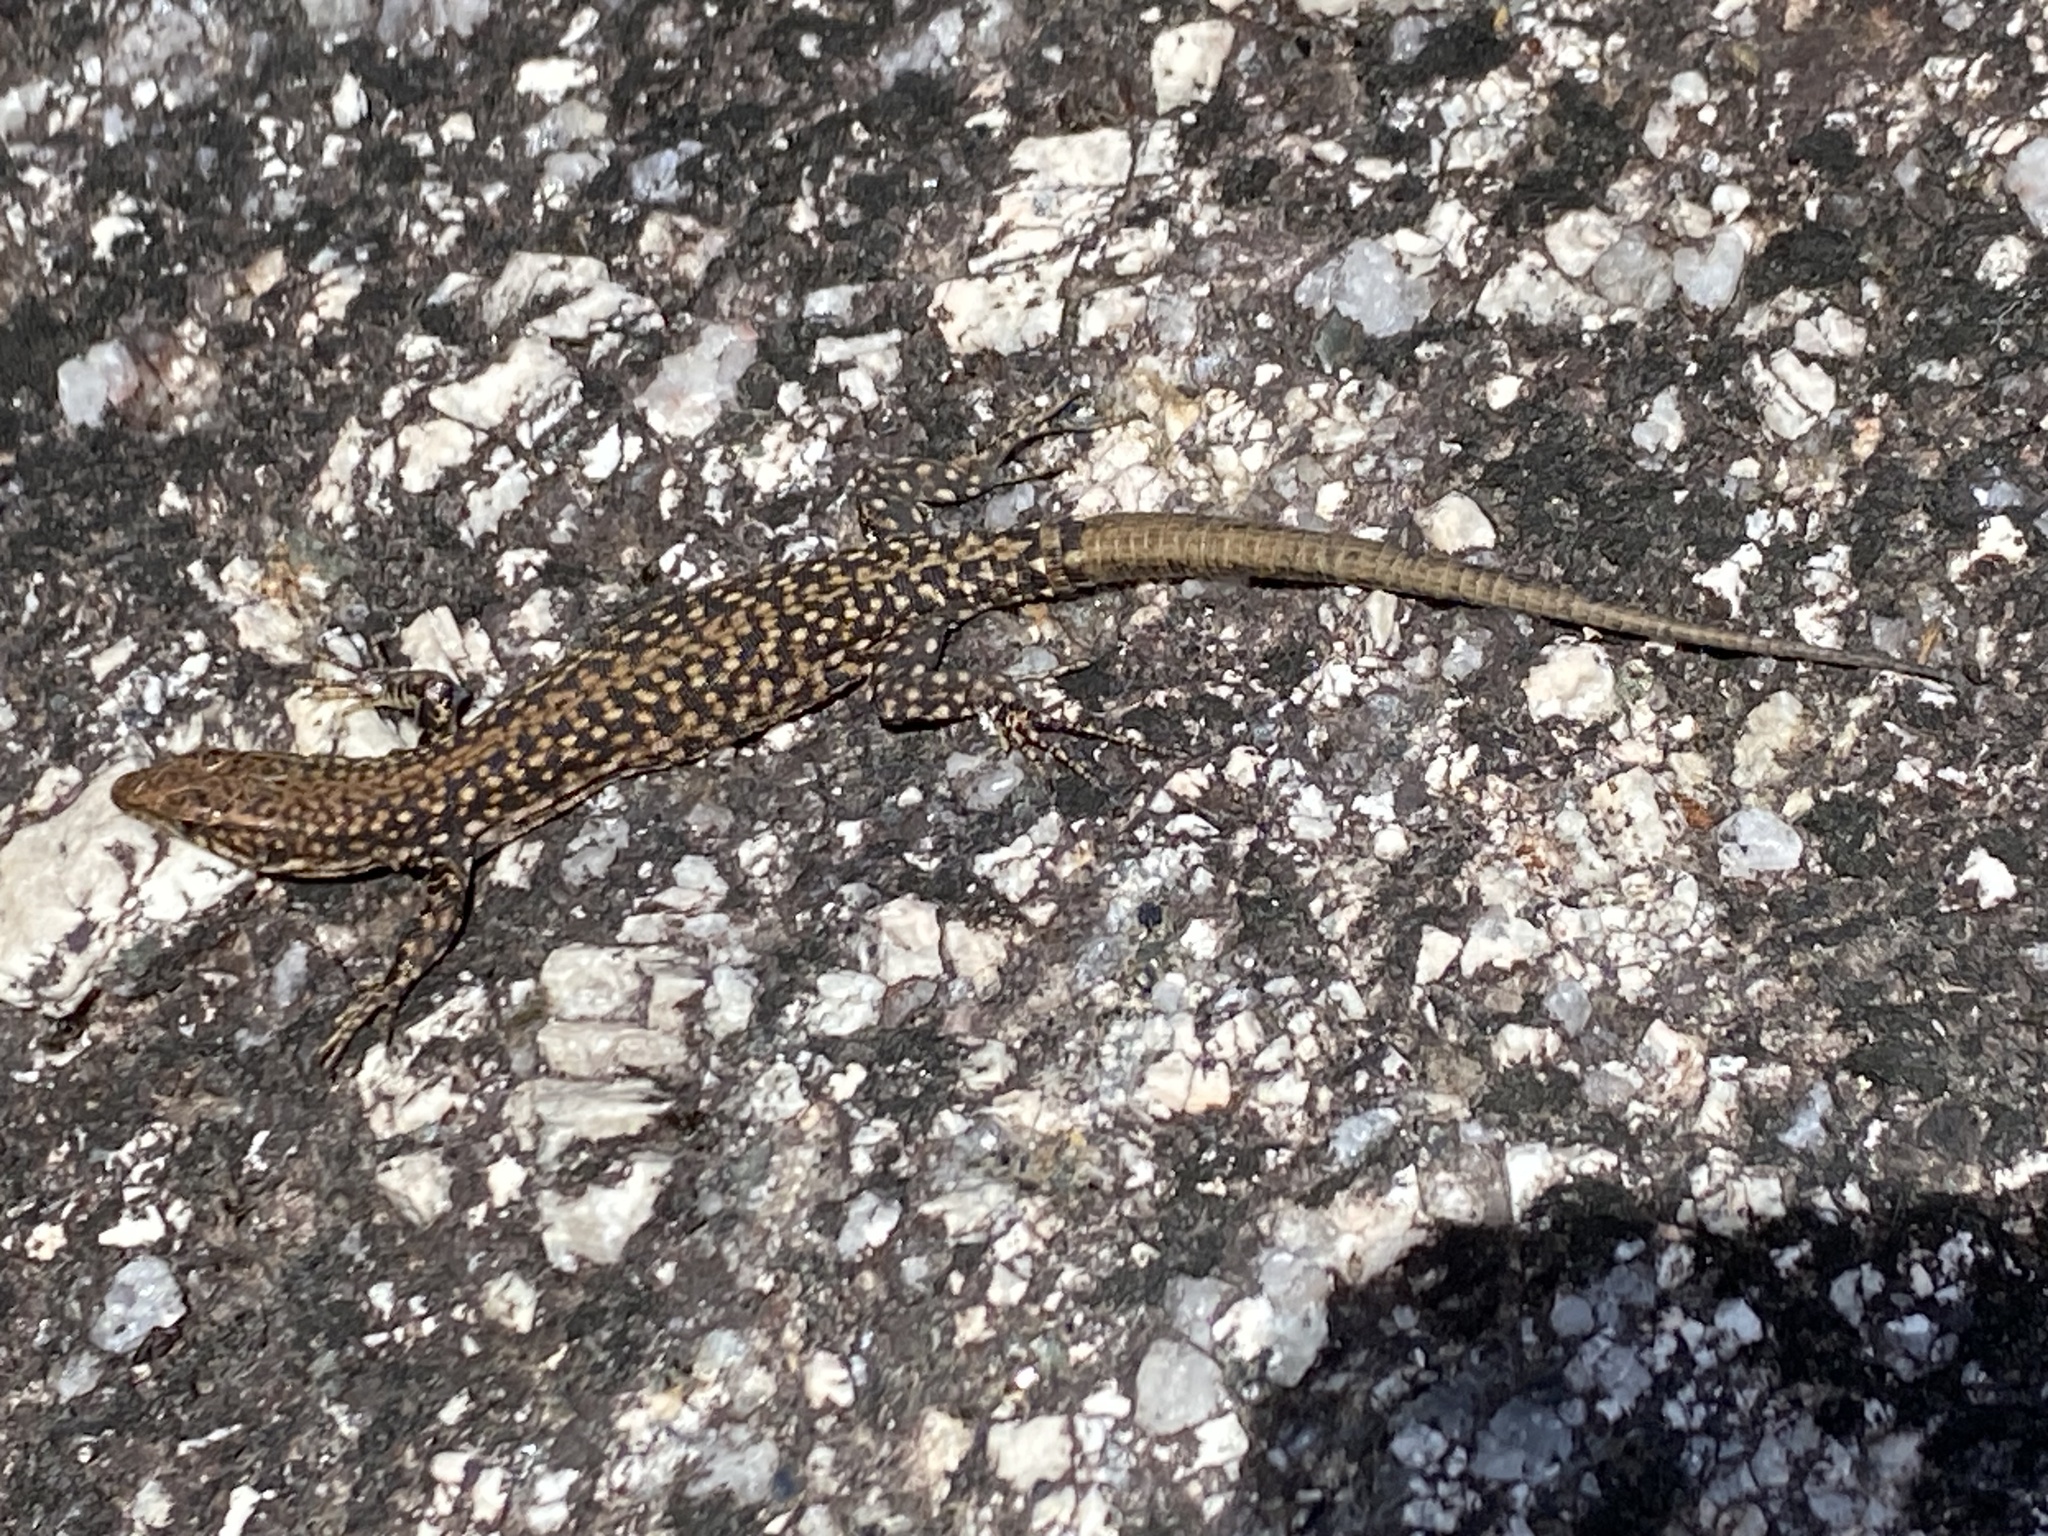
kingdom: Animalia
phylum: Chordata
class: Squamata
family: Lacertidae
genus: Podarcis
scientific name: Podarcis
